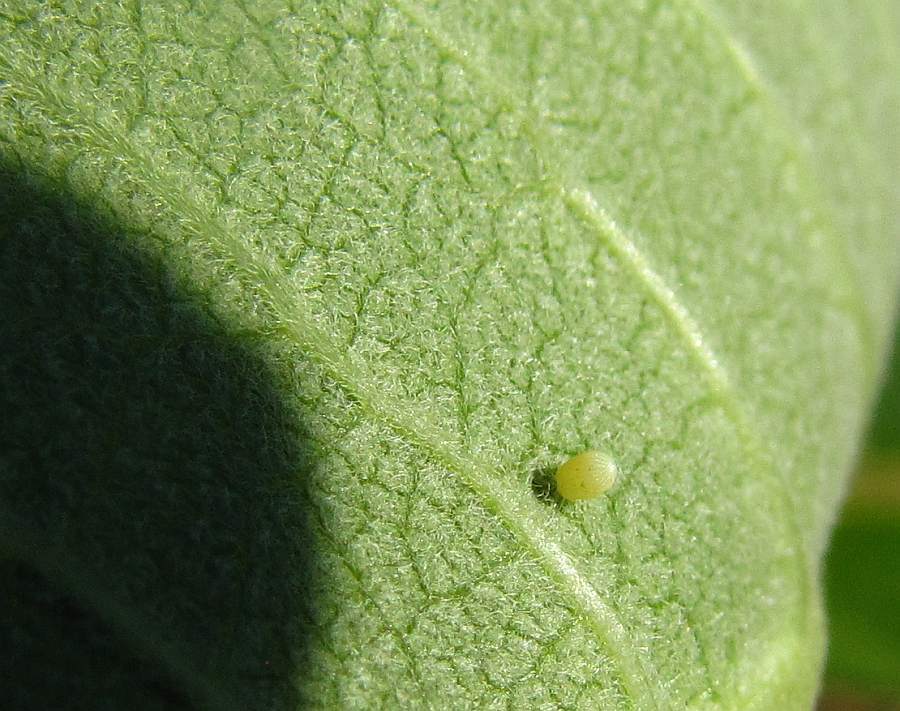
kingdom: Animalia
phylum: Arthropoda
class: Insecta
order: Lepidoptera
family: Nymphalidae
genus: Danaus
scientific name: Danaus plexippus
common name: Monarch
